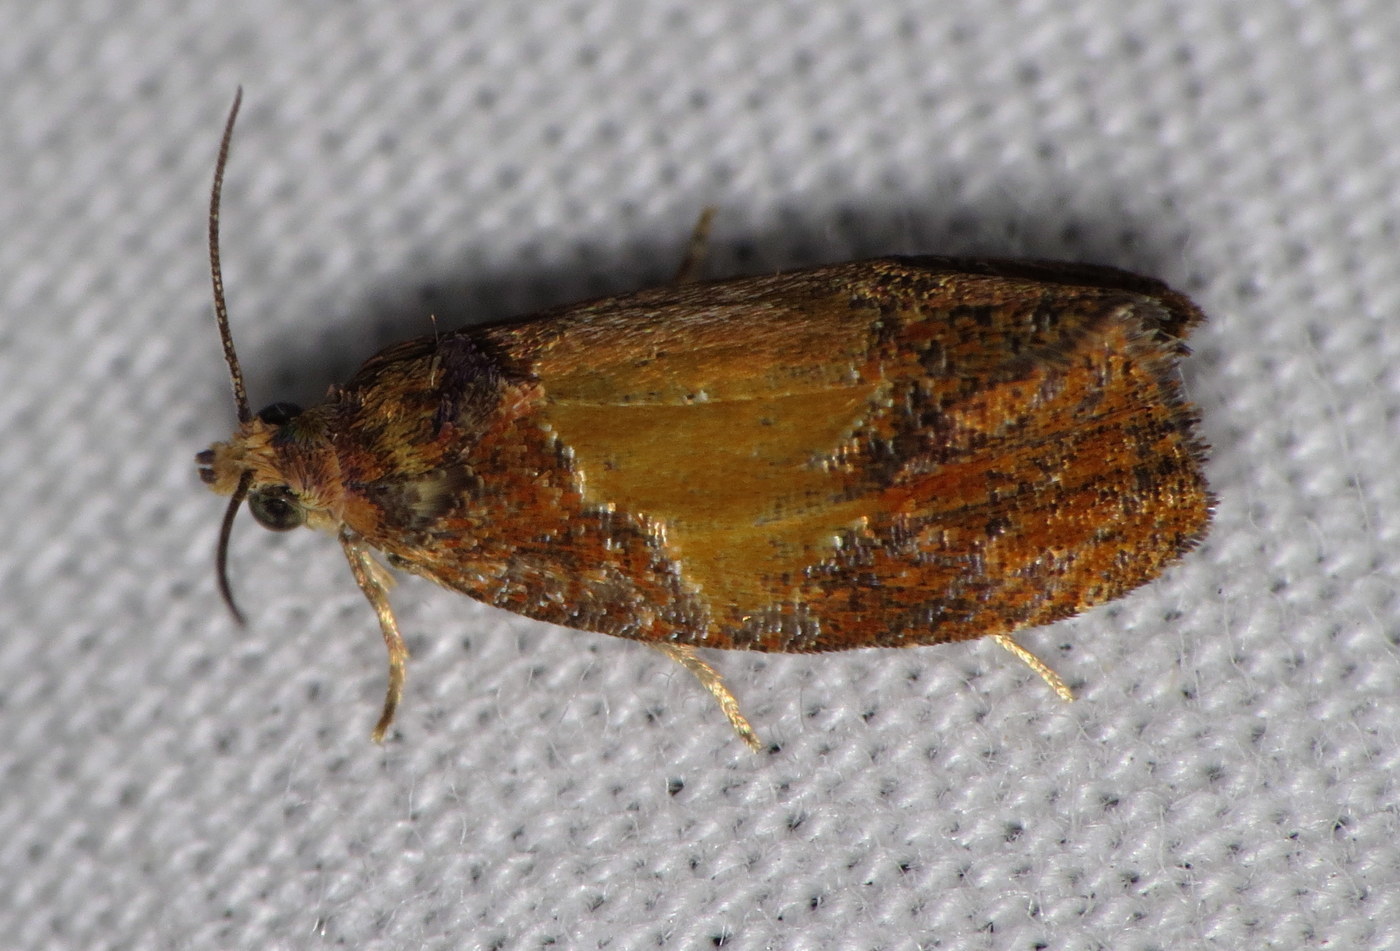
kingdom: Animalia
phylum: Arthropoda
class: Insecta
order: Lepidoptera
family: Tortricidae
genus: Olethreutes
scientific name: Olethreutes osmundana
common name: Fern olethreutes moth
